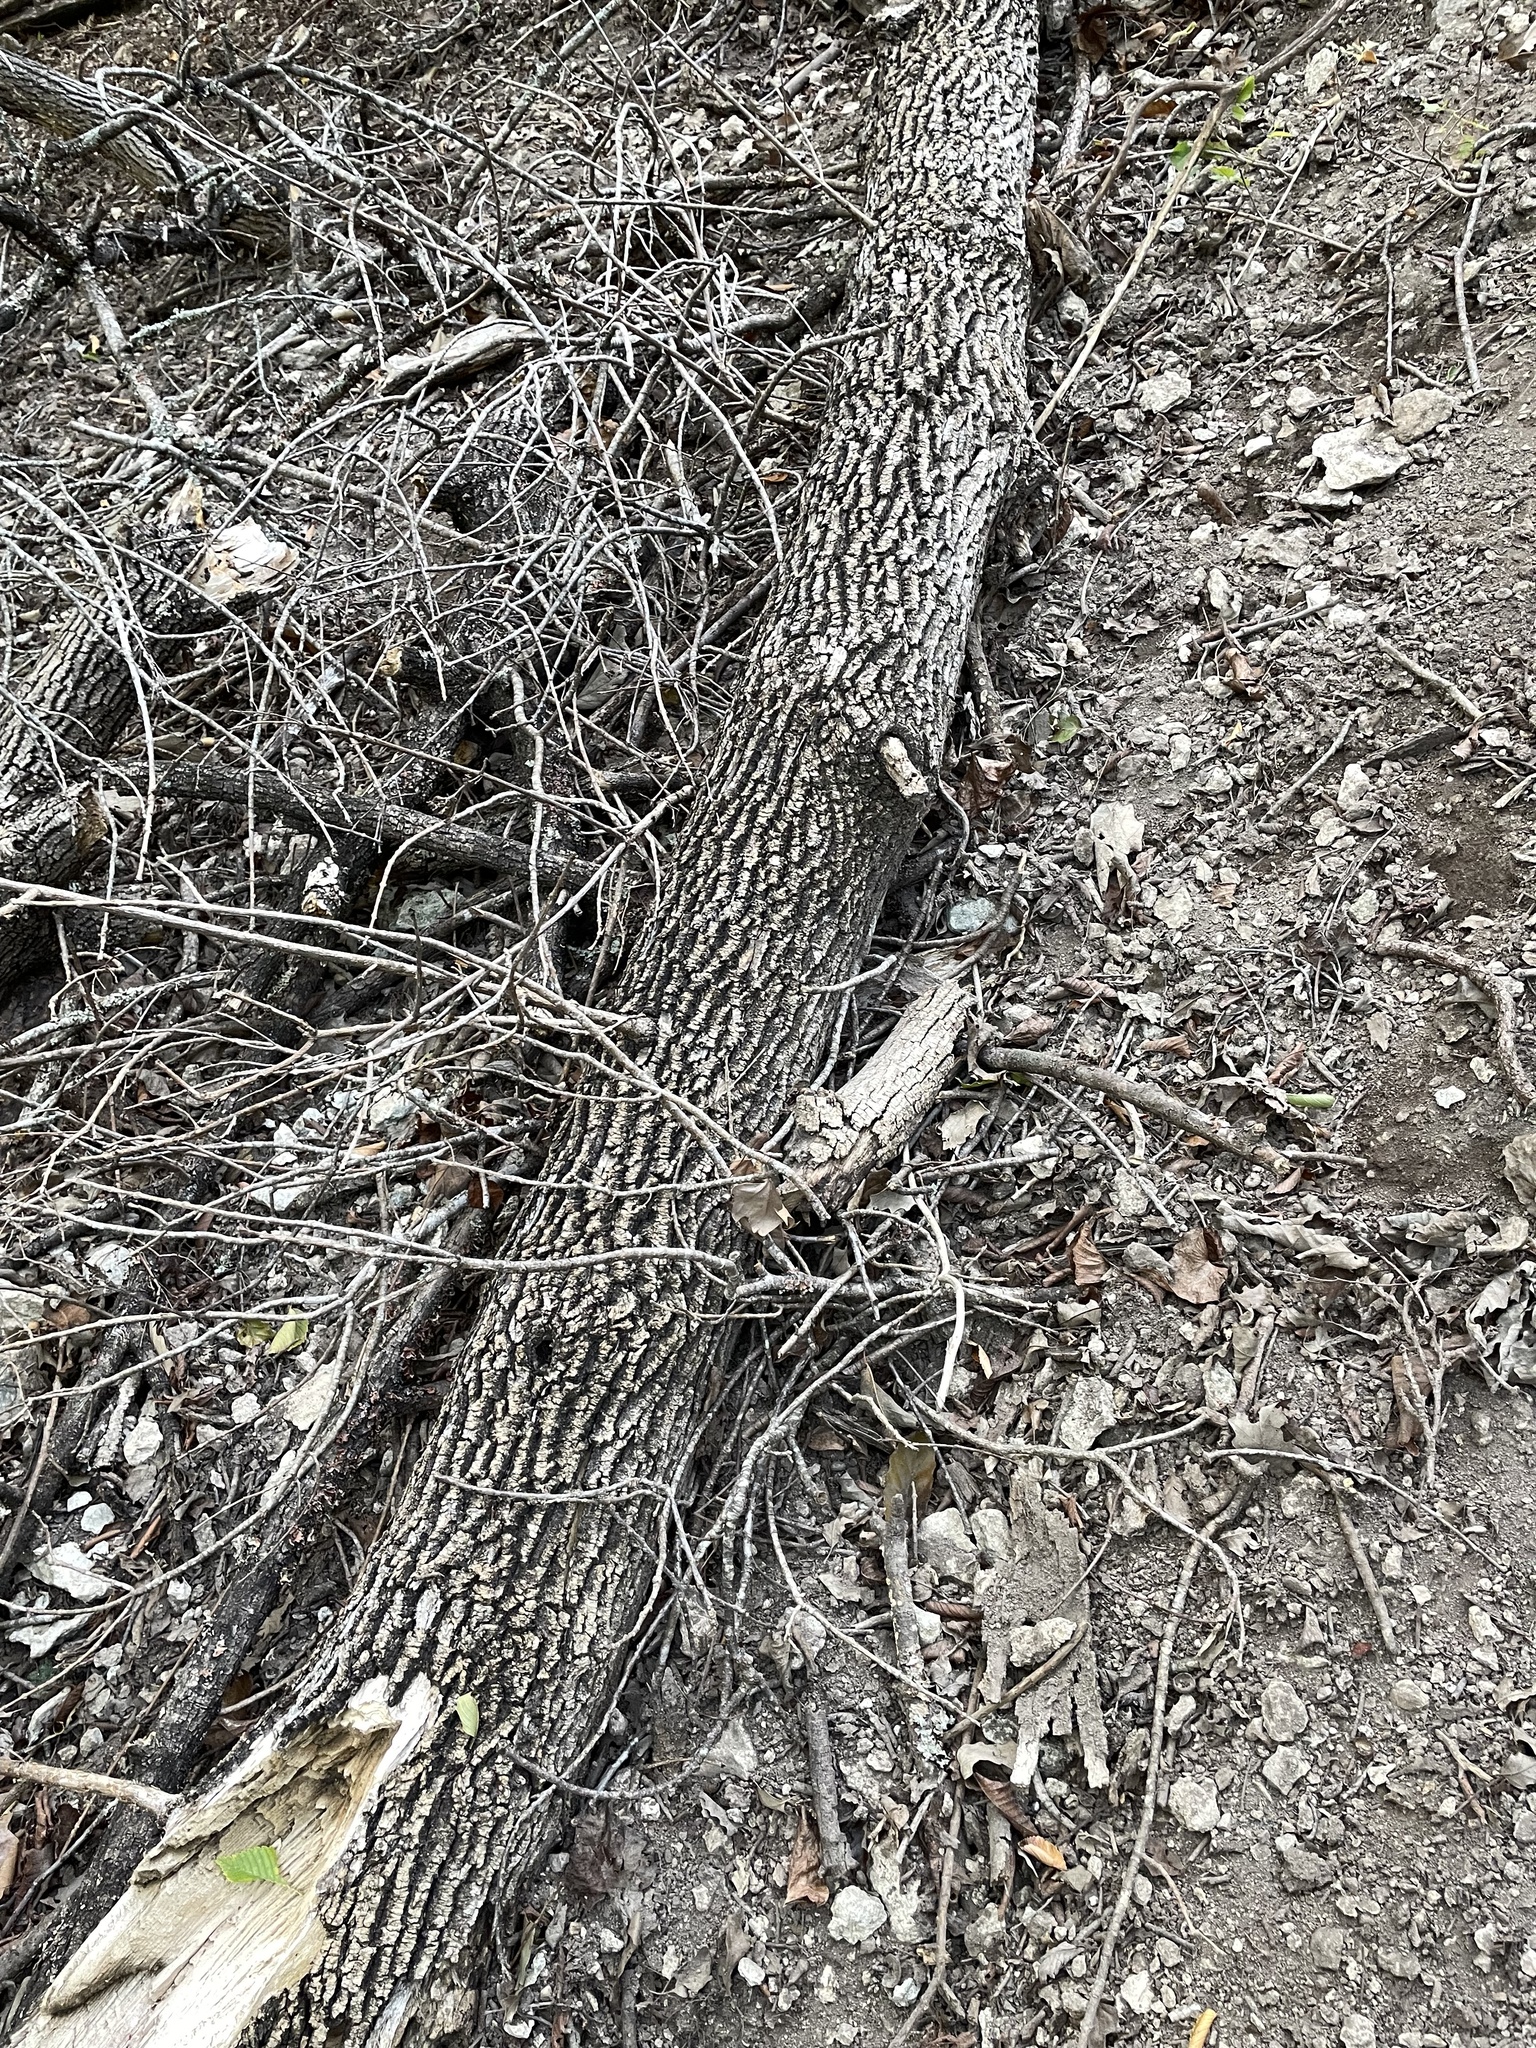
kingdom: Plantae
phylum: Tracheophyta
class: Magnoliopsida
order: Lamiales
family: Oleaceae
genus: Fraxinus
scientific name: Fraxinus albicans
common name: Texas ash
